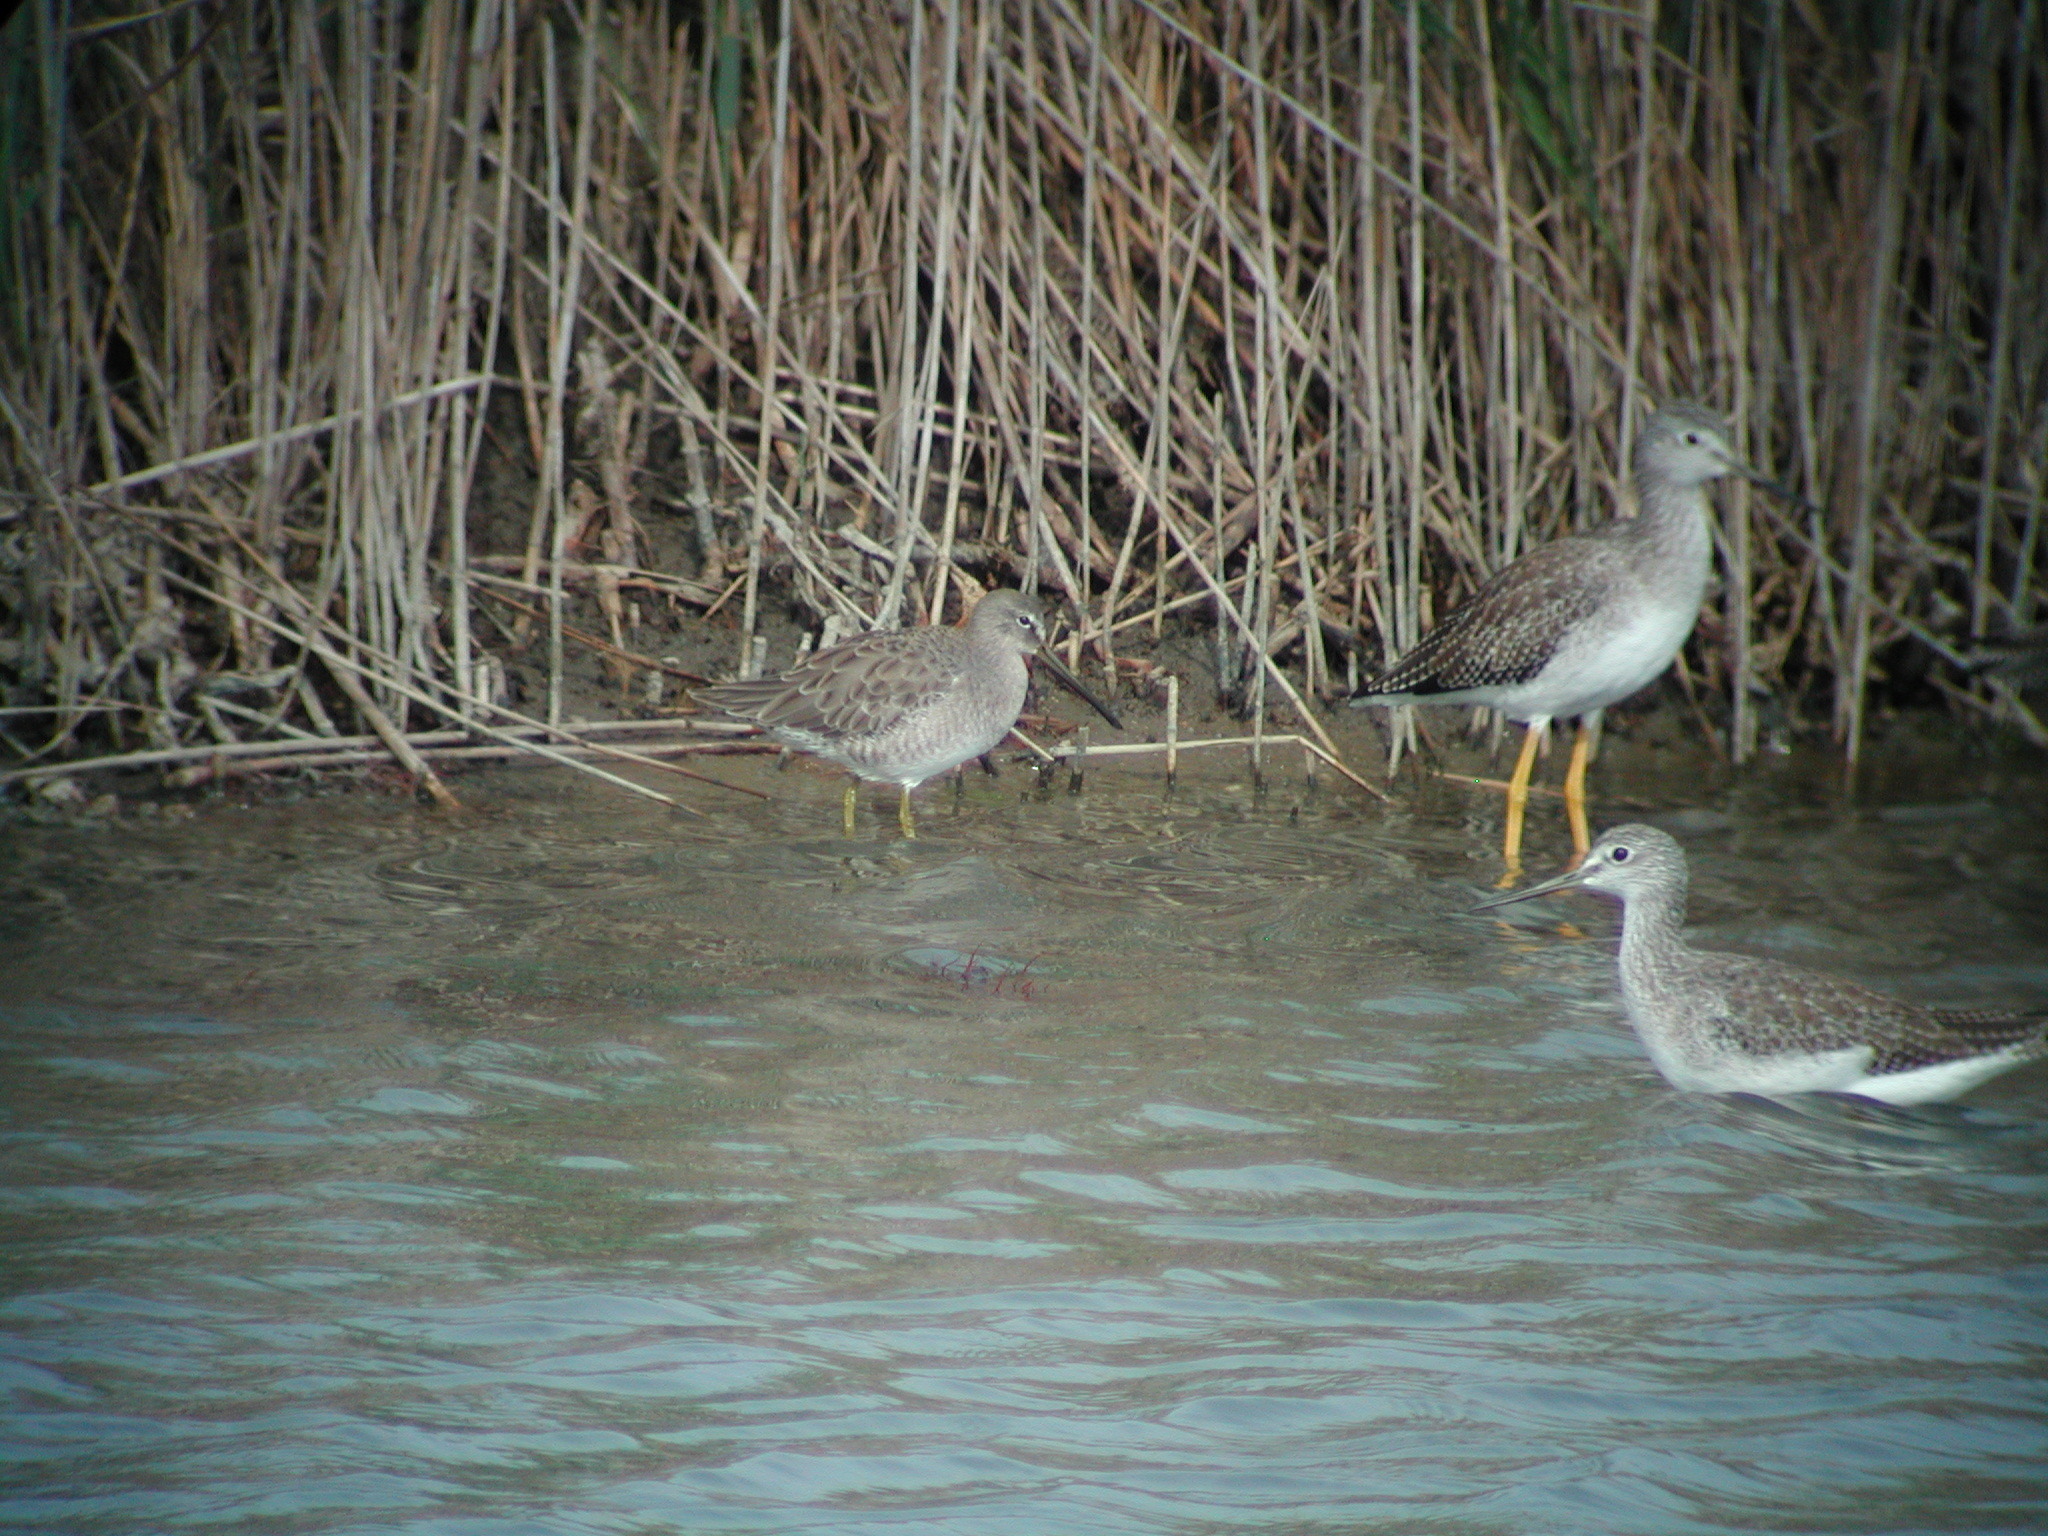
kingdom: Animalia
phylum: Chordata
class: Aves
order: Charadriiformes
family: Scolopacidae
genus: Limnodromus
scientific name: Limnodromus
